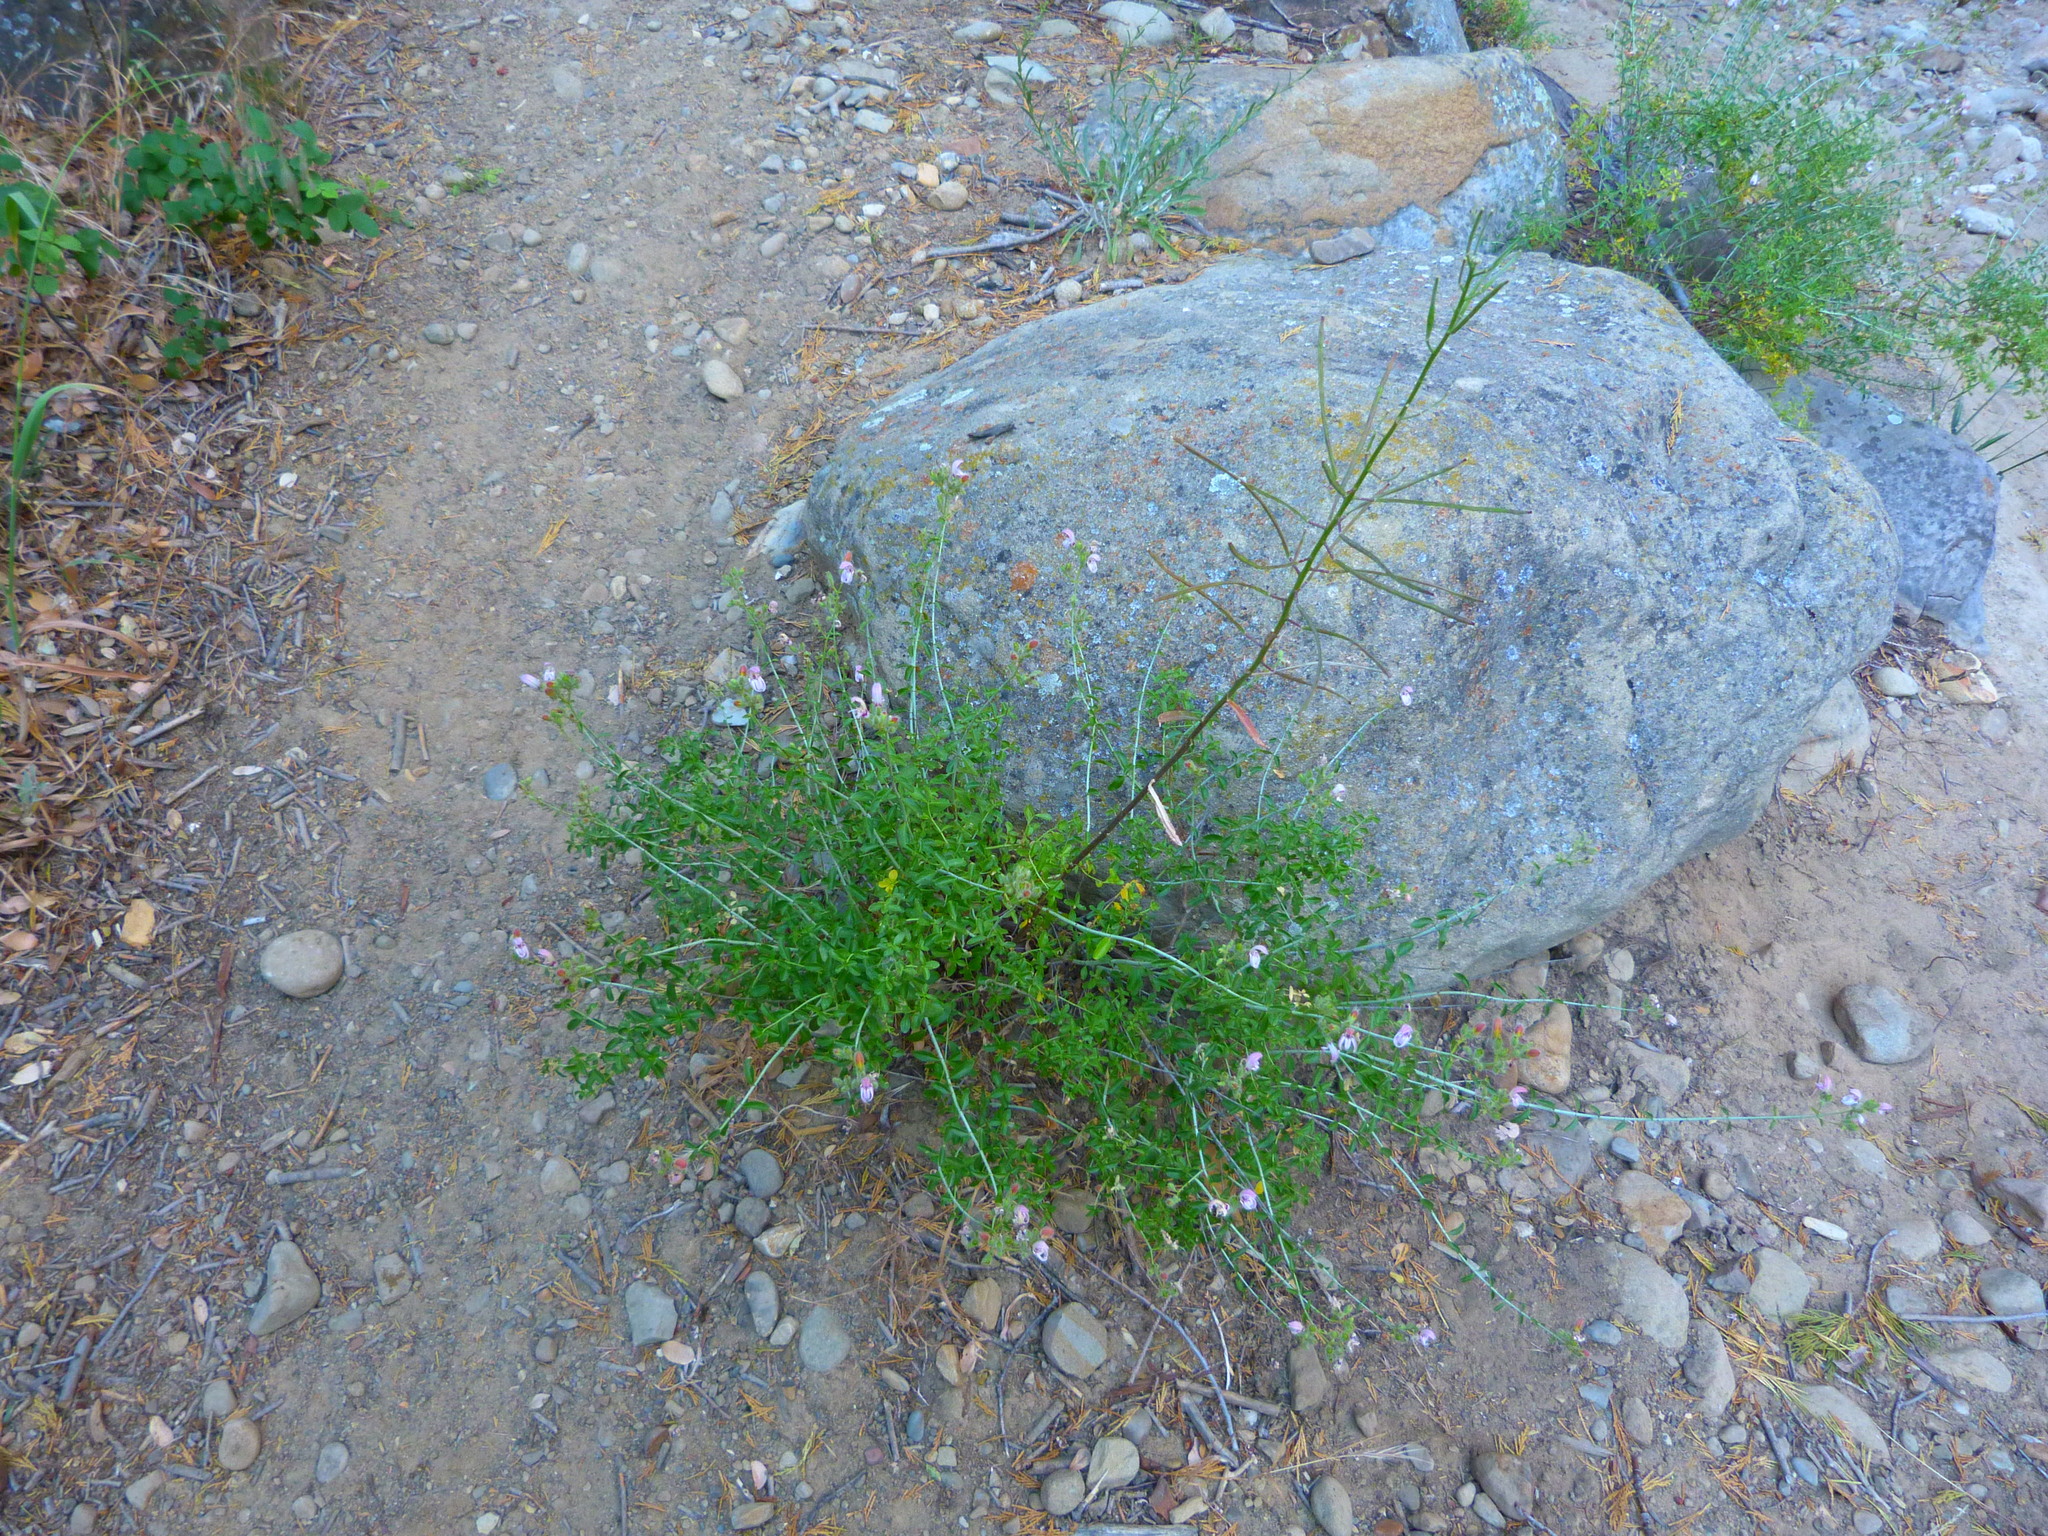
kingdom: Plantae
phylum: Tracheophyta
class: Magnoliopsida
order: Lamiales
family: Plantaginaceae
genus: Keckiella
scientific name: Keckiella breviflora
